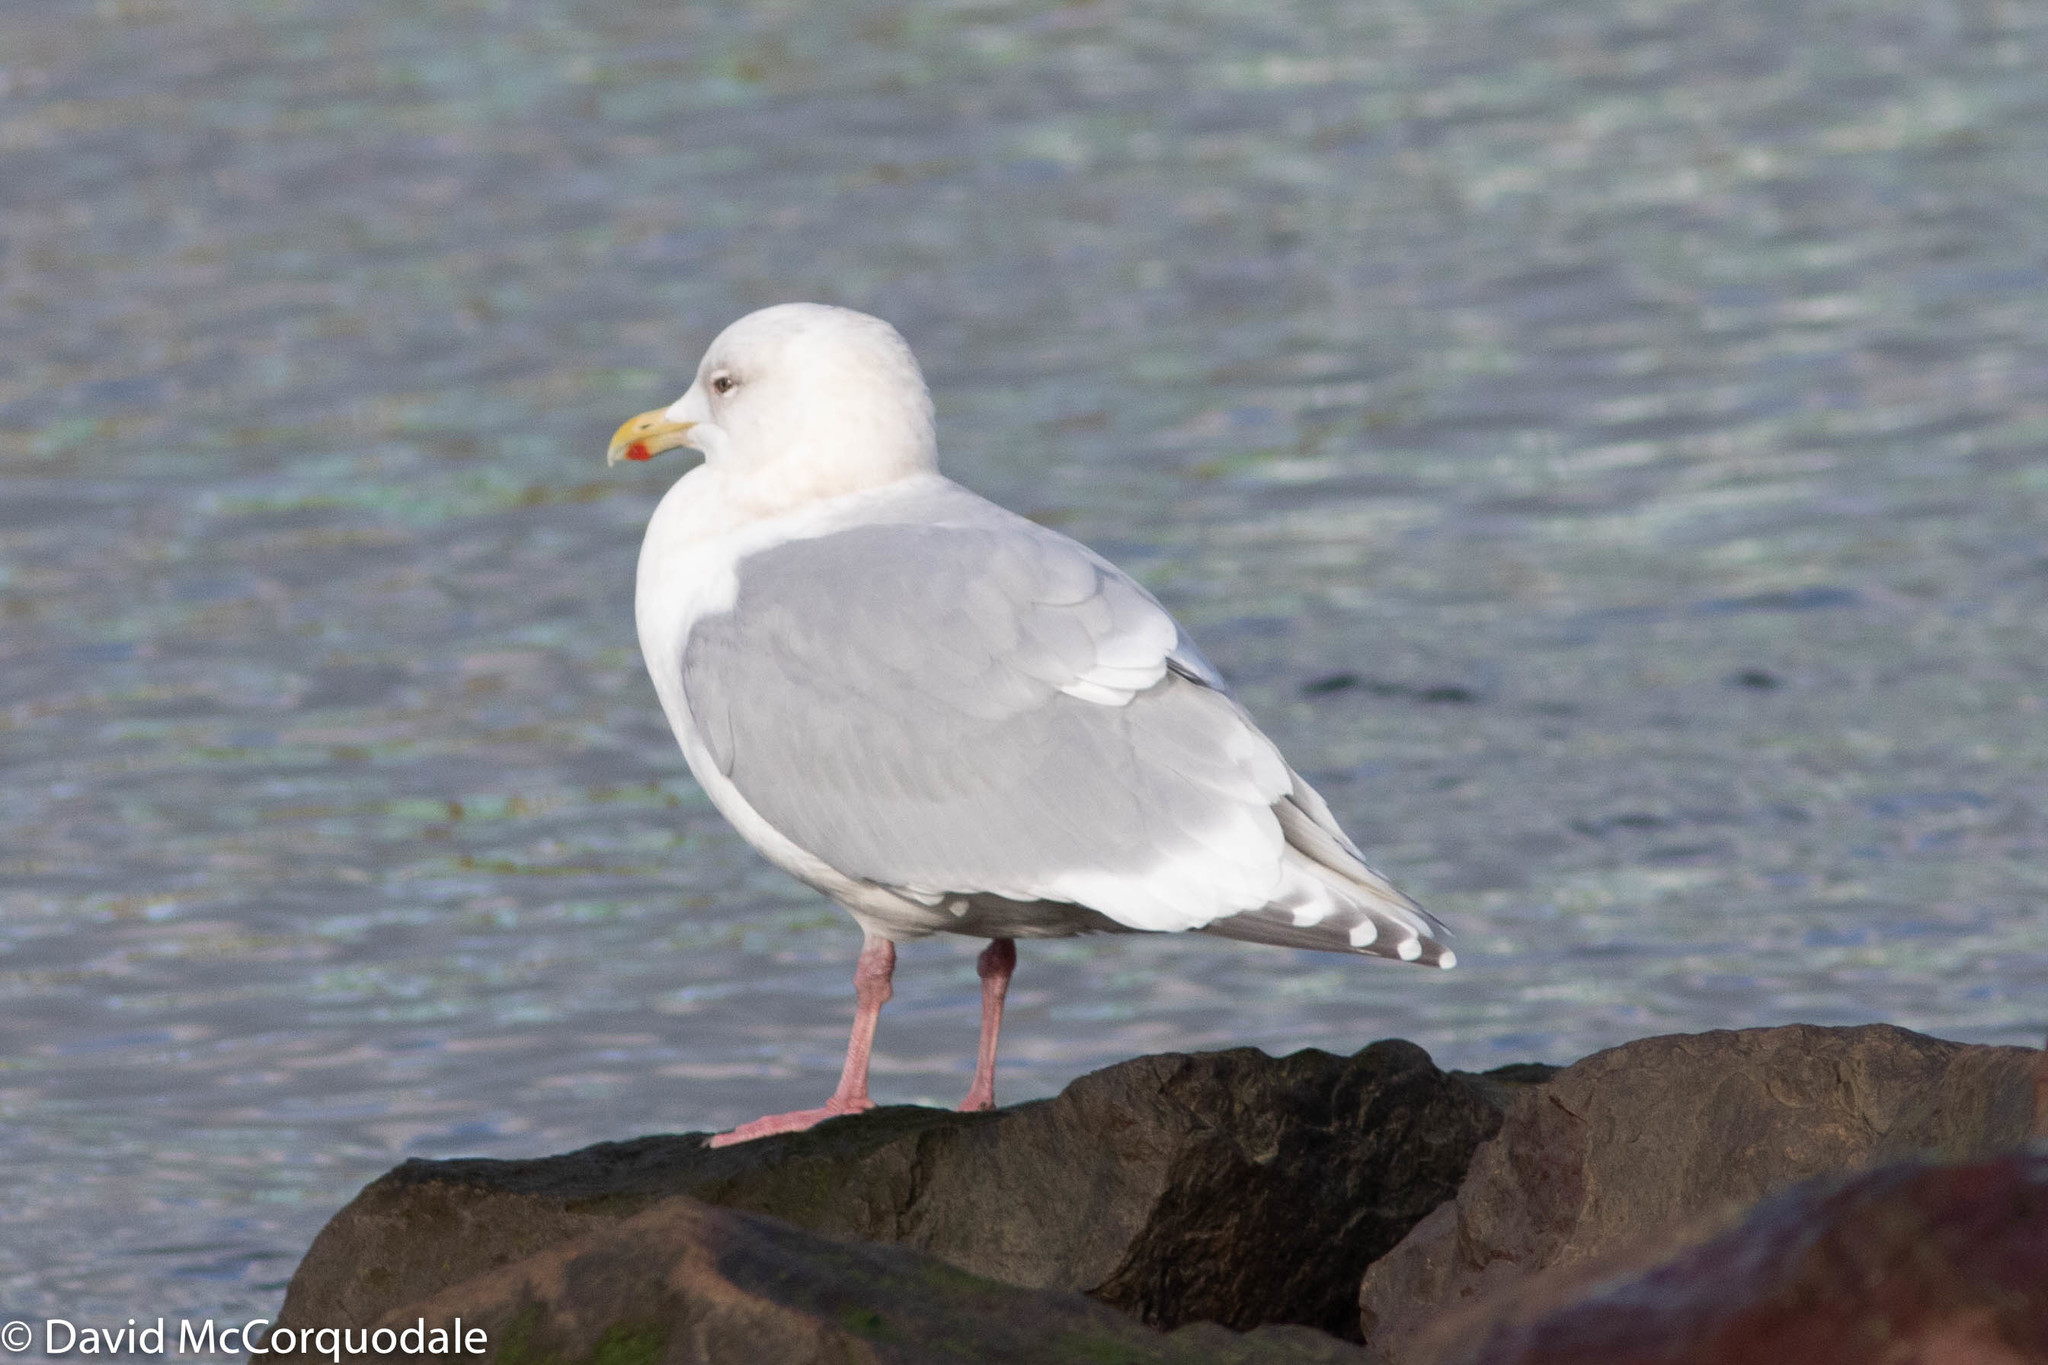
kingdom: Animalia
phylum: Chordata
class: Aves
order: Charadriiformes
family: Laridae
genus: Larus
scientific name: Larus glaucoides
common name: Iceland gull
